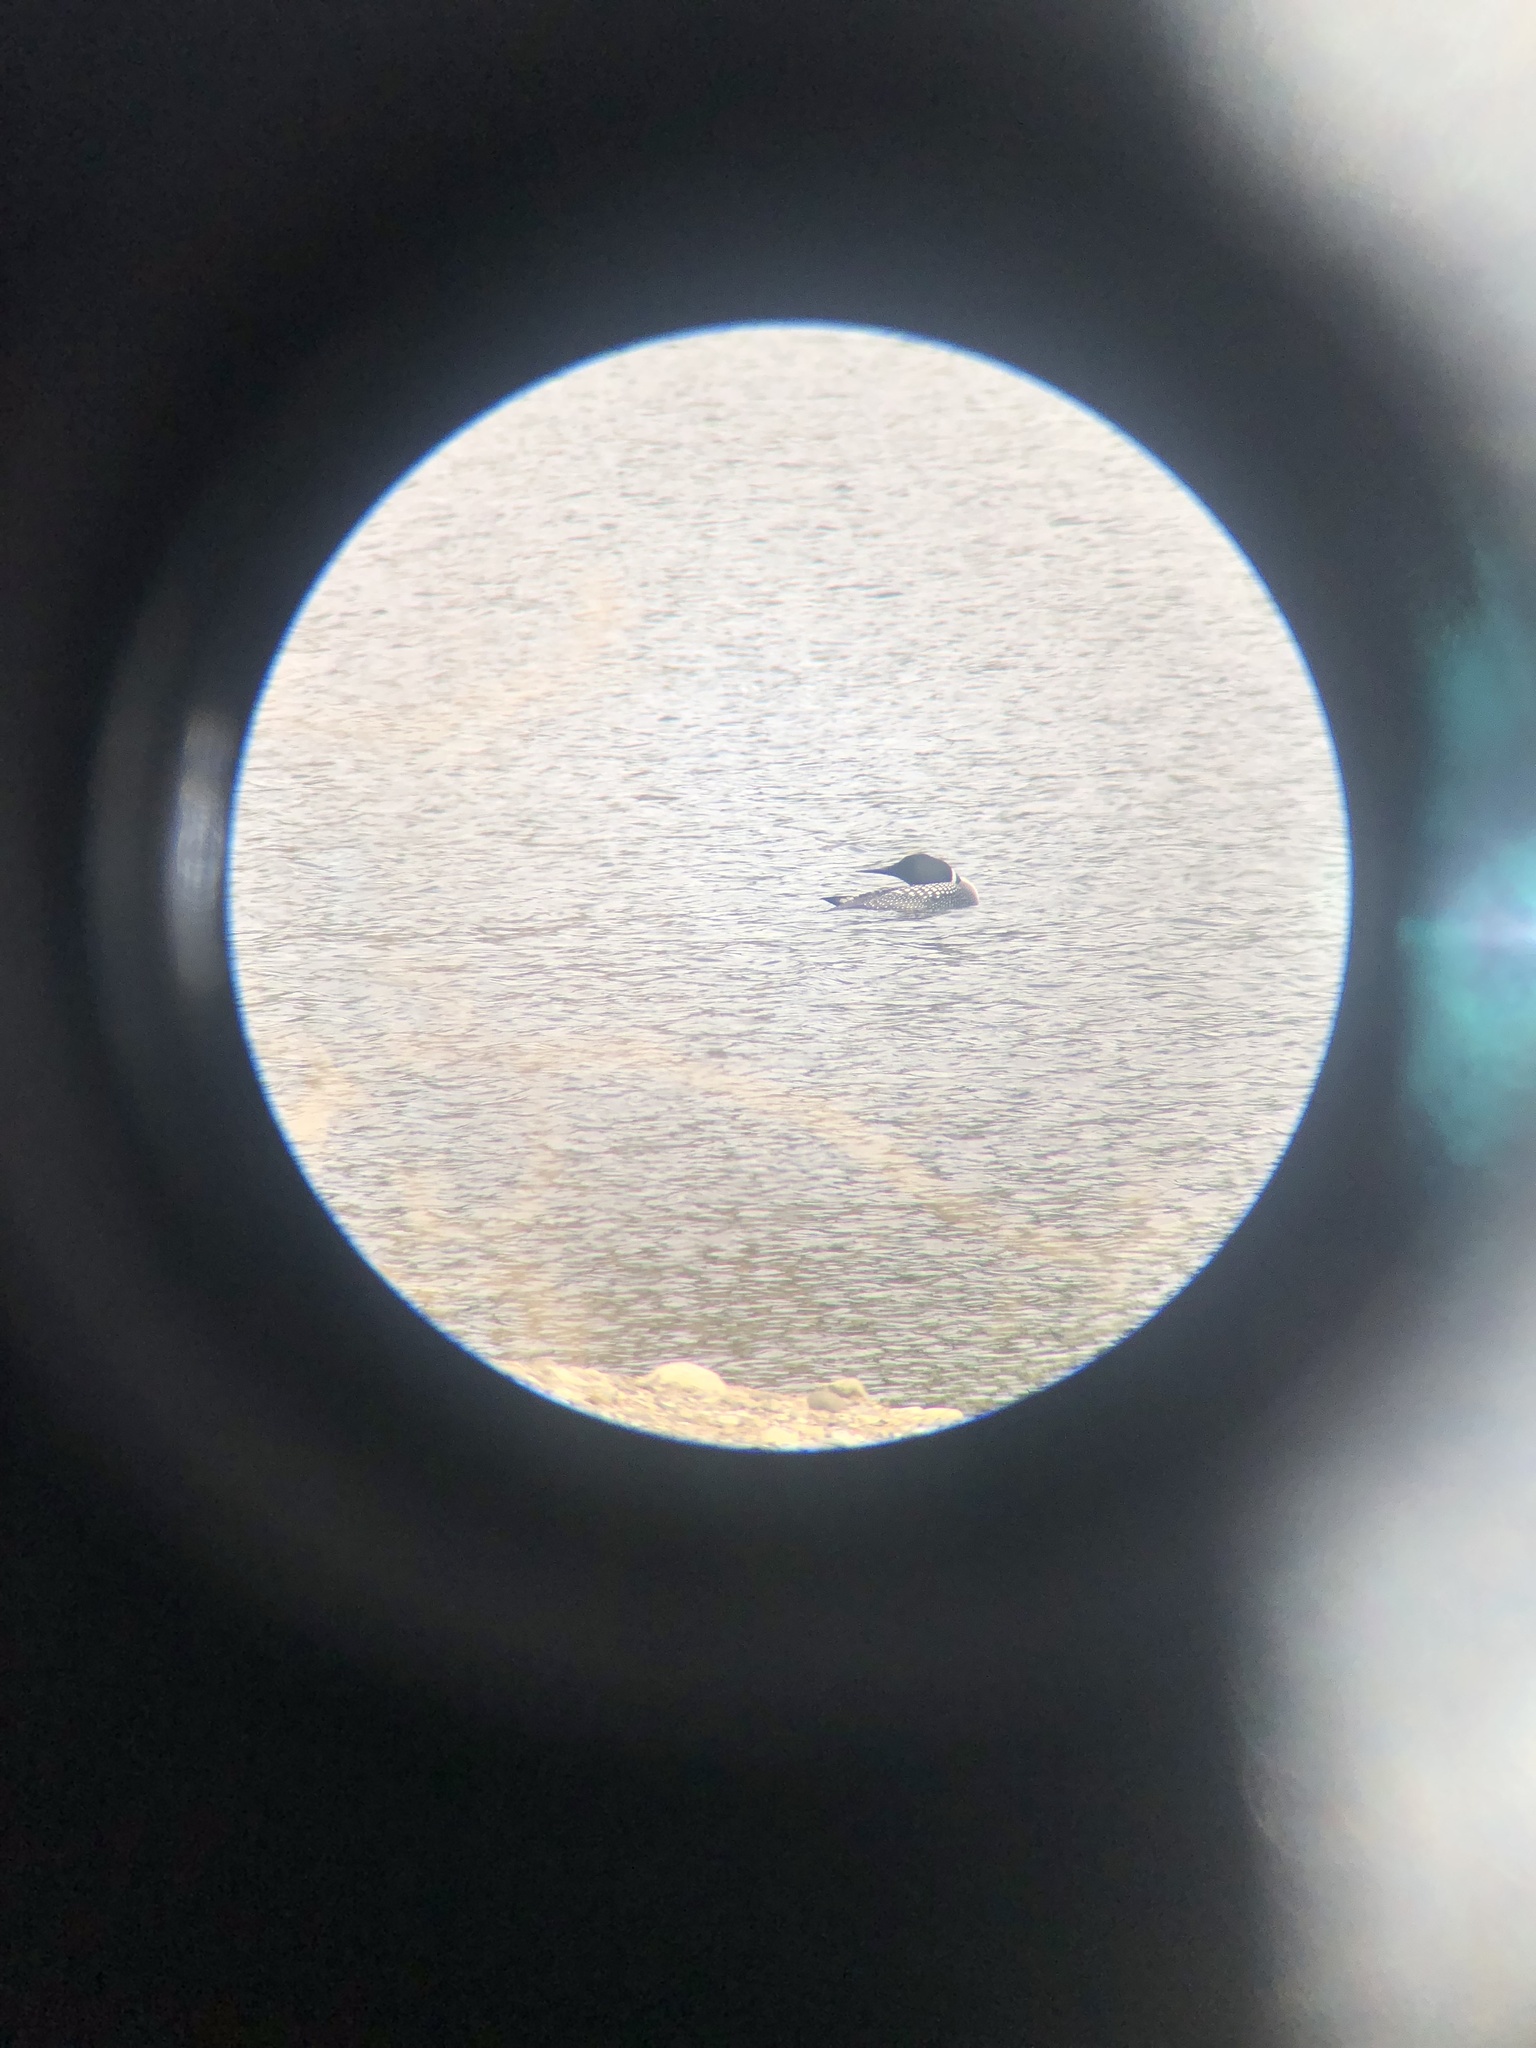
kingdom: Animalia
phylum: Chordata
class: Aves
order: Gaviiformes
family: Gaviidae
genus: Gavia
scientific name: Gavia immer
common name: Common loon
